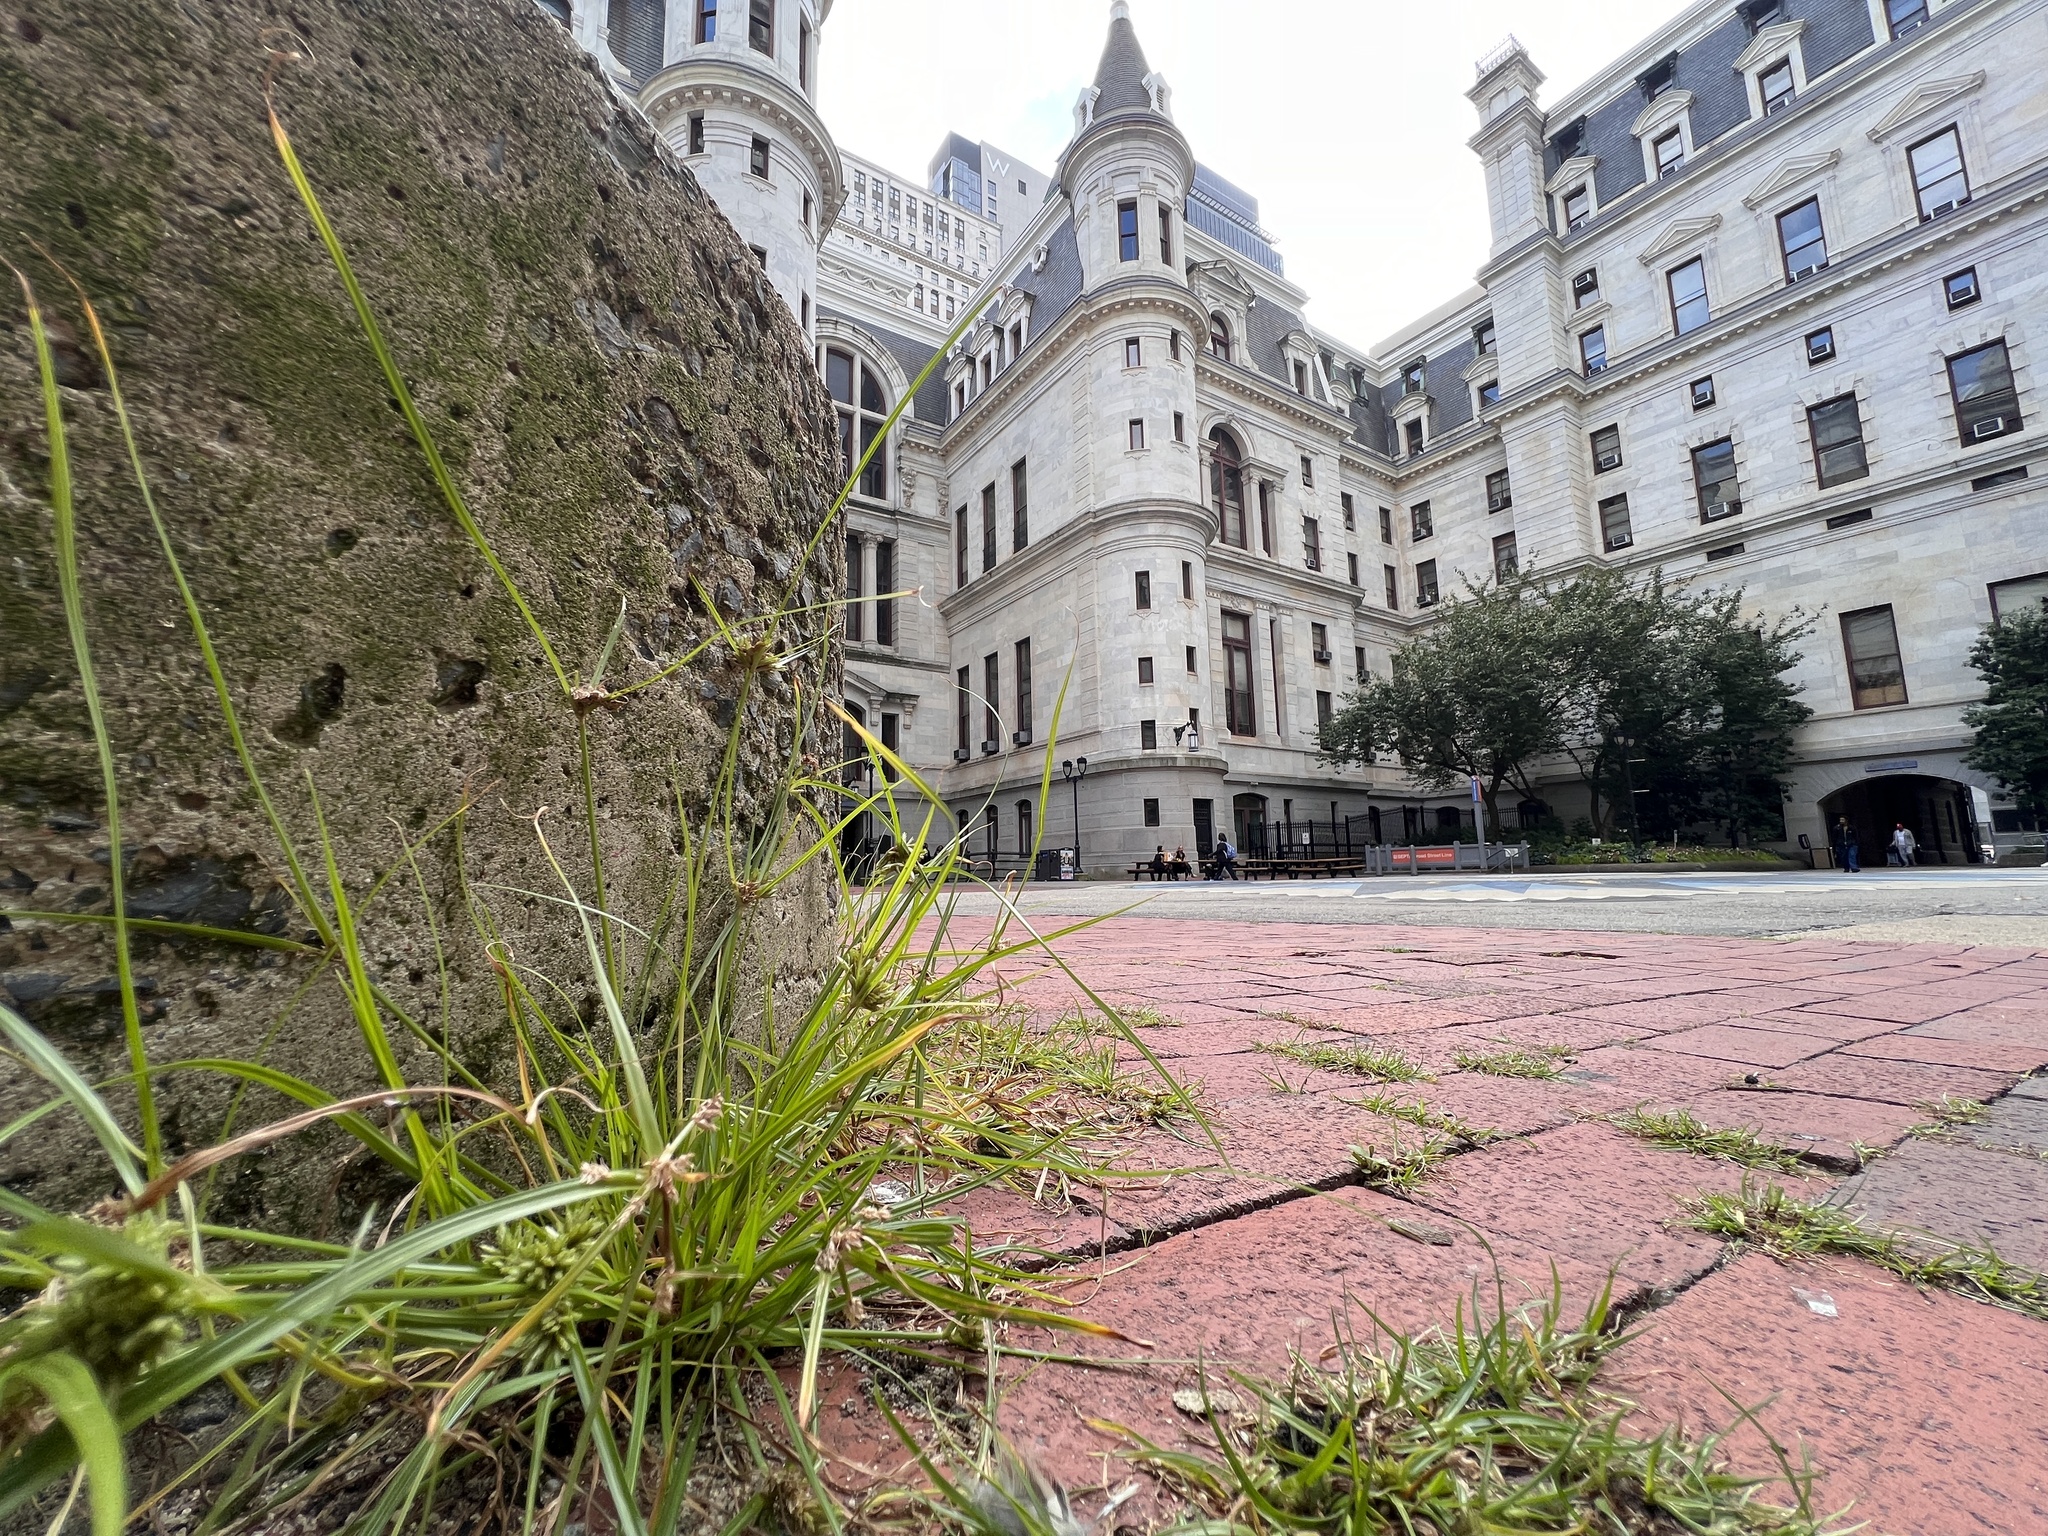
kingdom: Plantae
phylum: Tracheophyta
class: Liliopsida
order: Poales
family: Cyperaceae
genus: Cyperus
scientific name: Cyperus nipponicus
